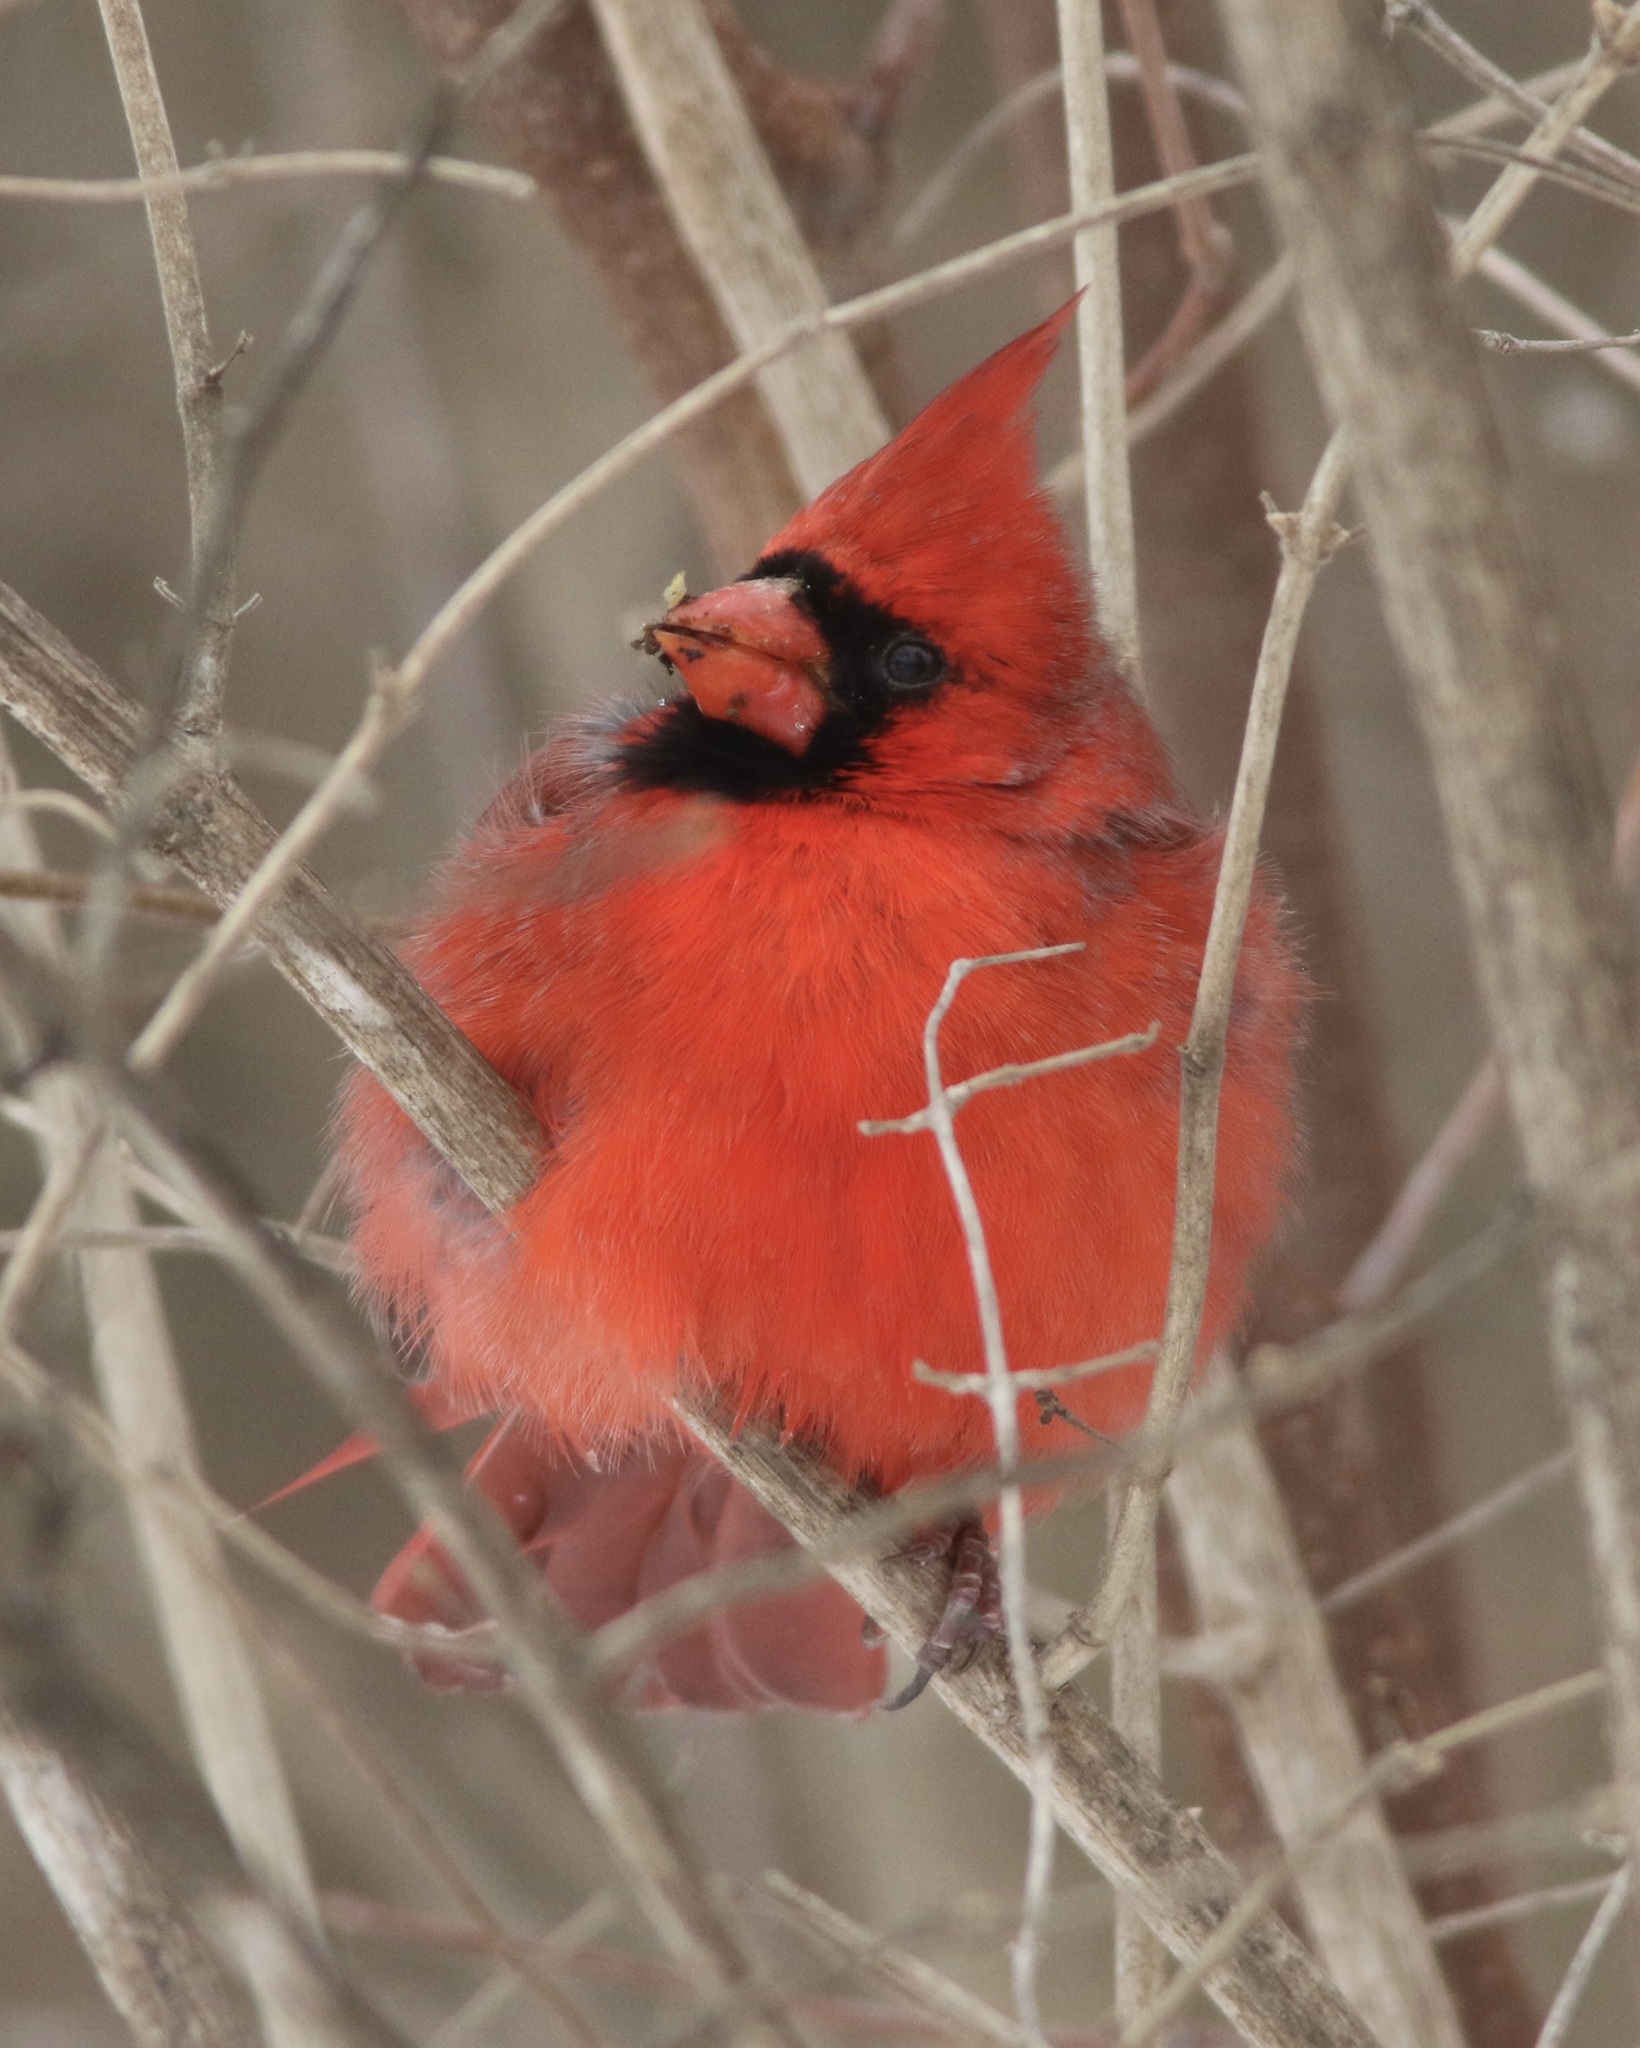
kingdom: Animalia
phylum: Chordata
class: Aves
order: Passeriformes
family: Cardinalidae
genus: Cardinalis
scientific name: Cardinalis cardinalis
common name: Northern cardinal
